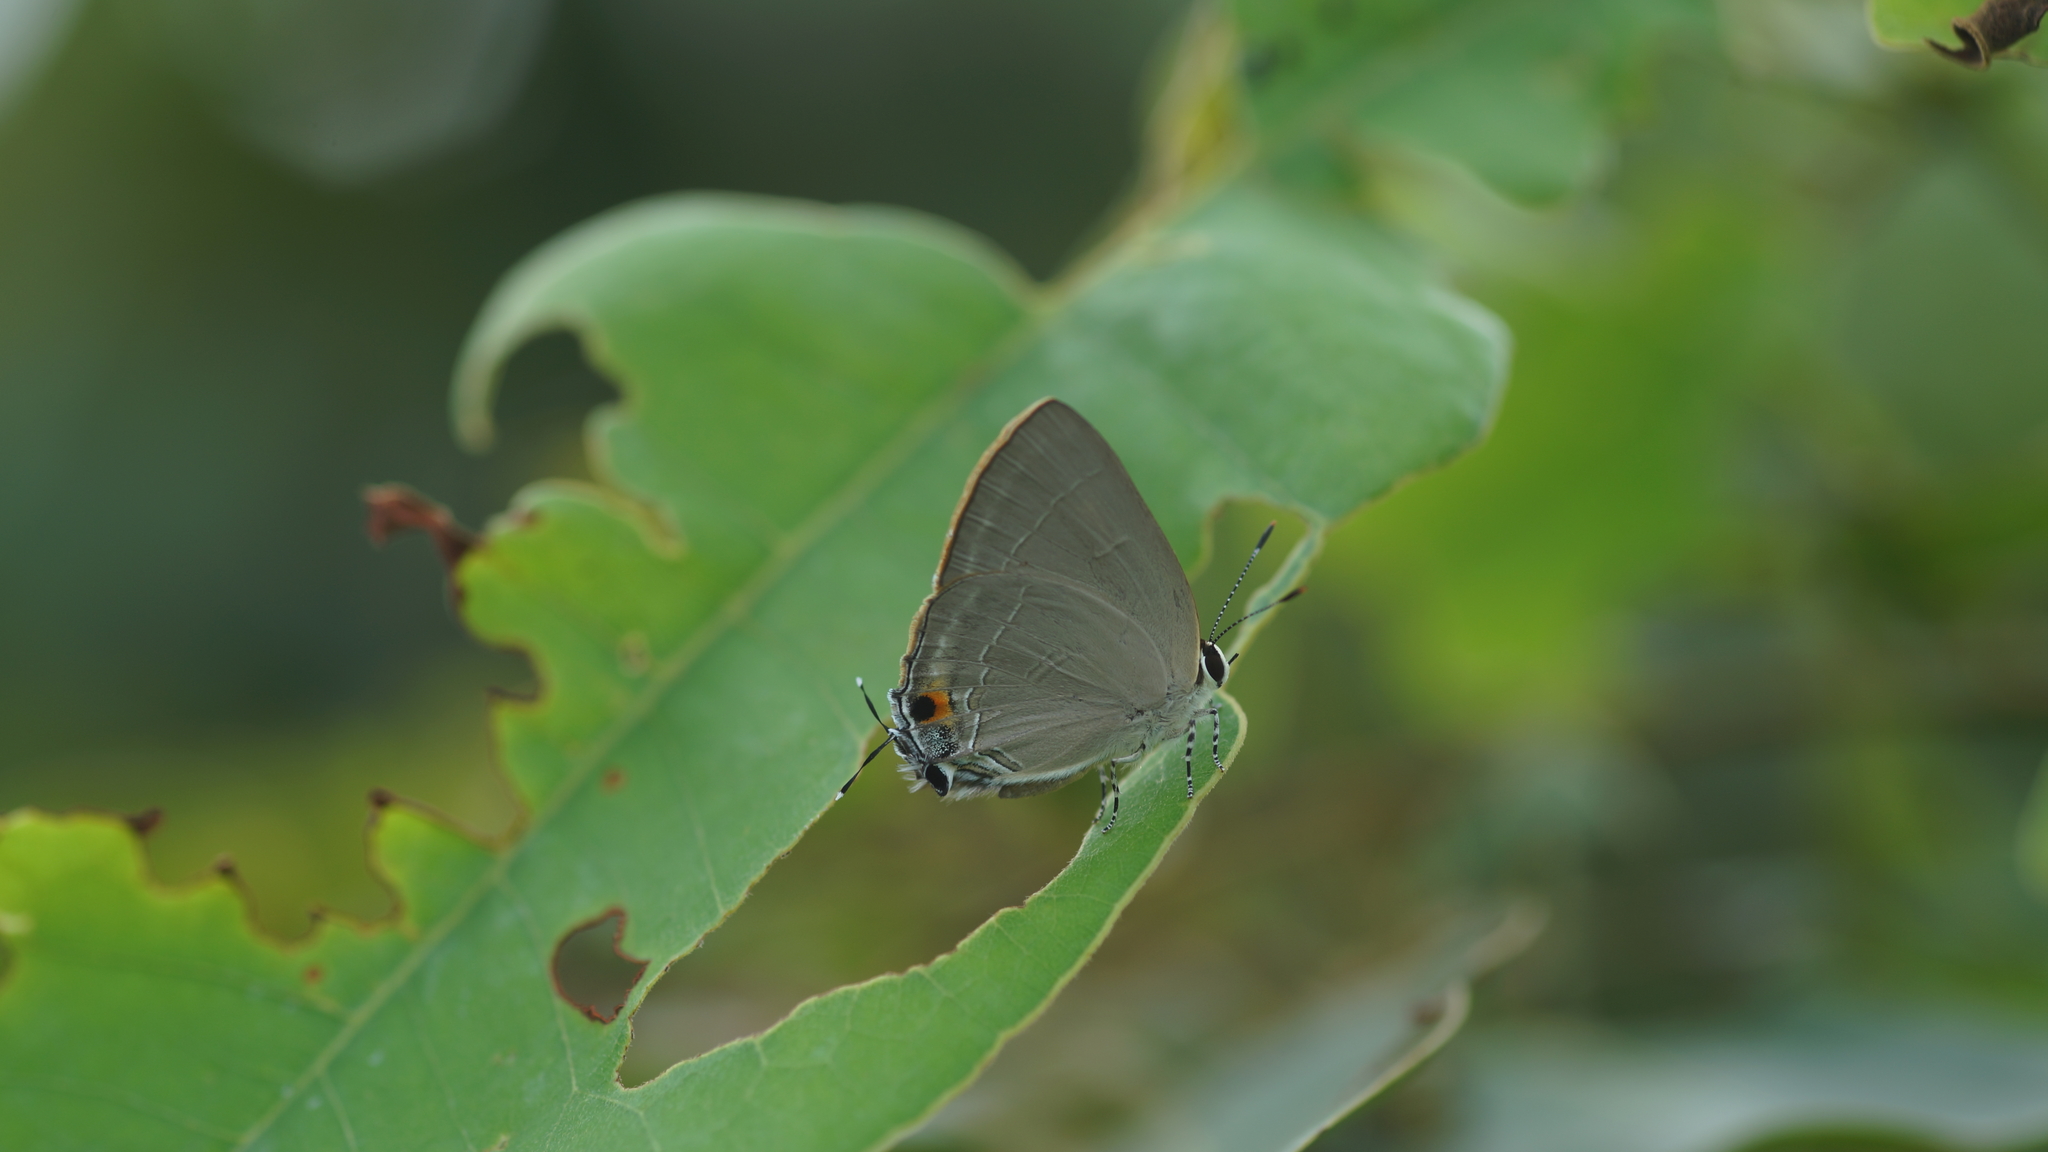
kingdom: Animalia
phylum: Arthropoda
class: Insecta
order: Lepidoptera
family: Lycaenidae
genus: Rapala
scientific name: Rapala iarbus
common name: Common red flash
